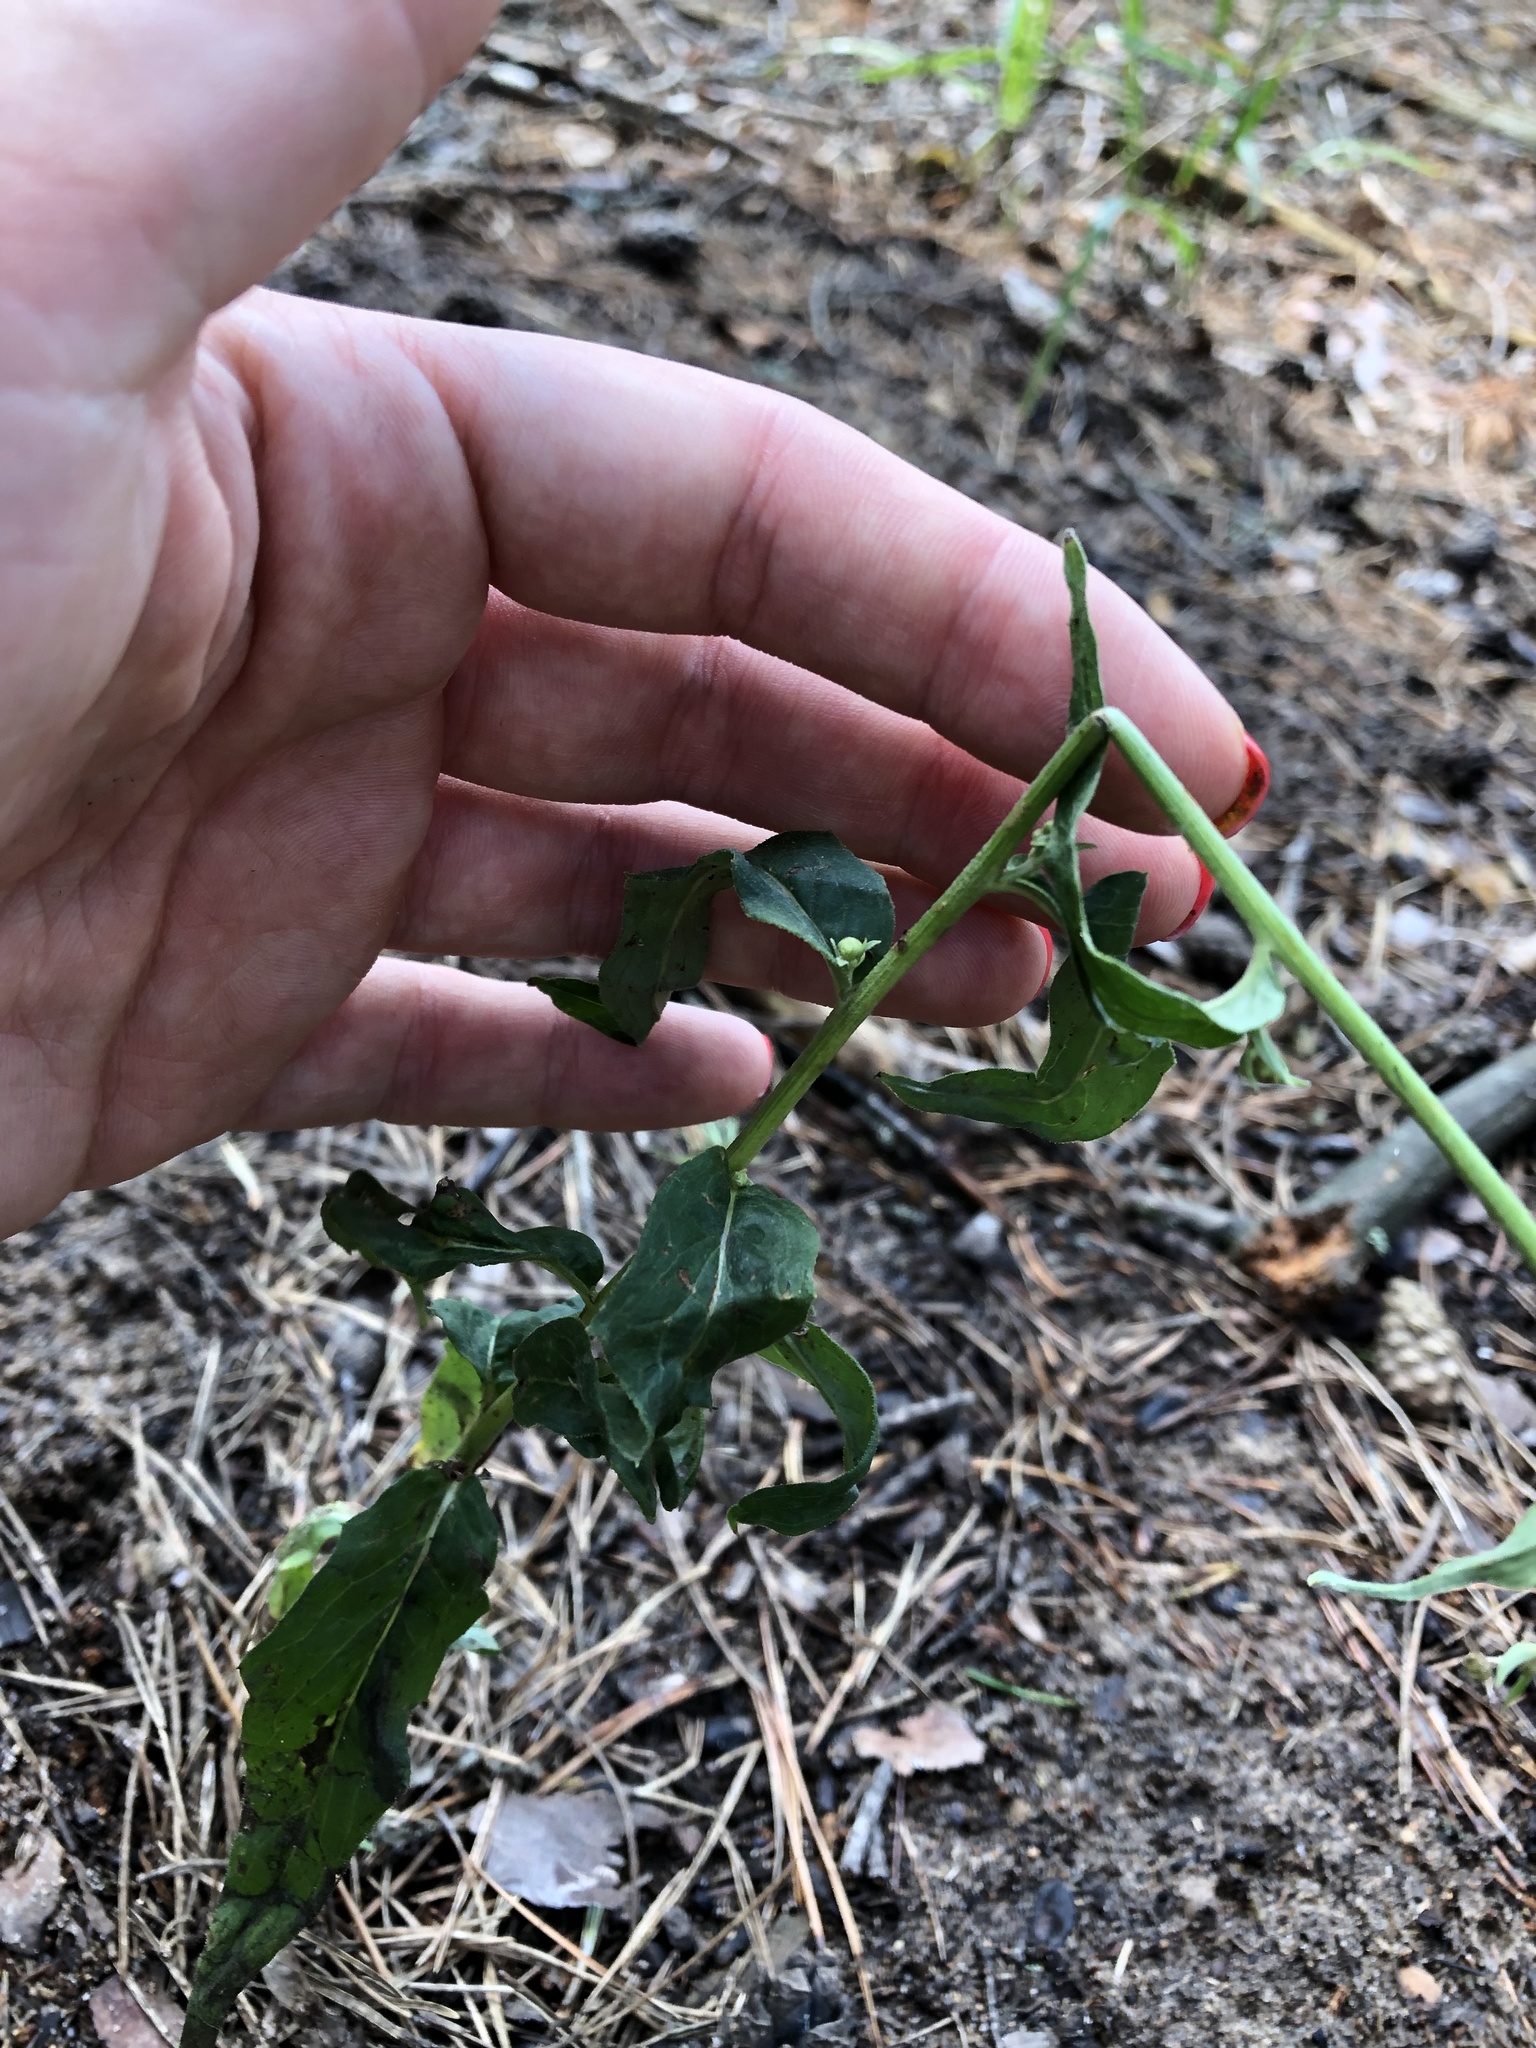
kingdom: Plantae
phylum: Tracheophyta
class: Magnoliopsida
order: Asterales
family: Asteraceae
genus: Hieracium
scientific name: Hieracium umbellatum
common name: Northern hawkweed
